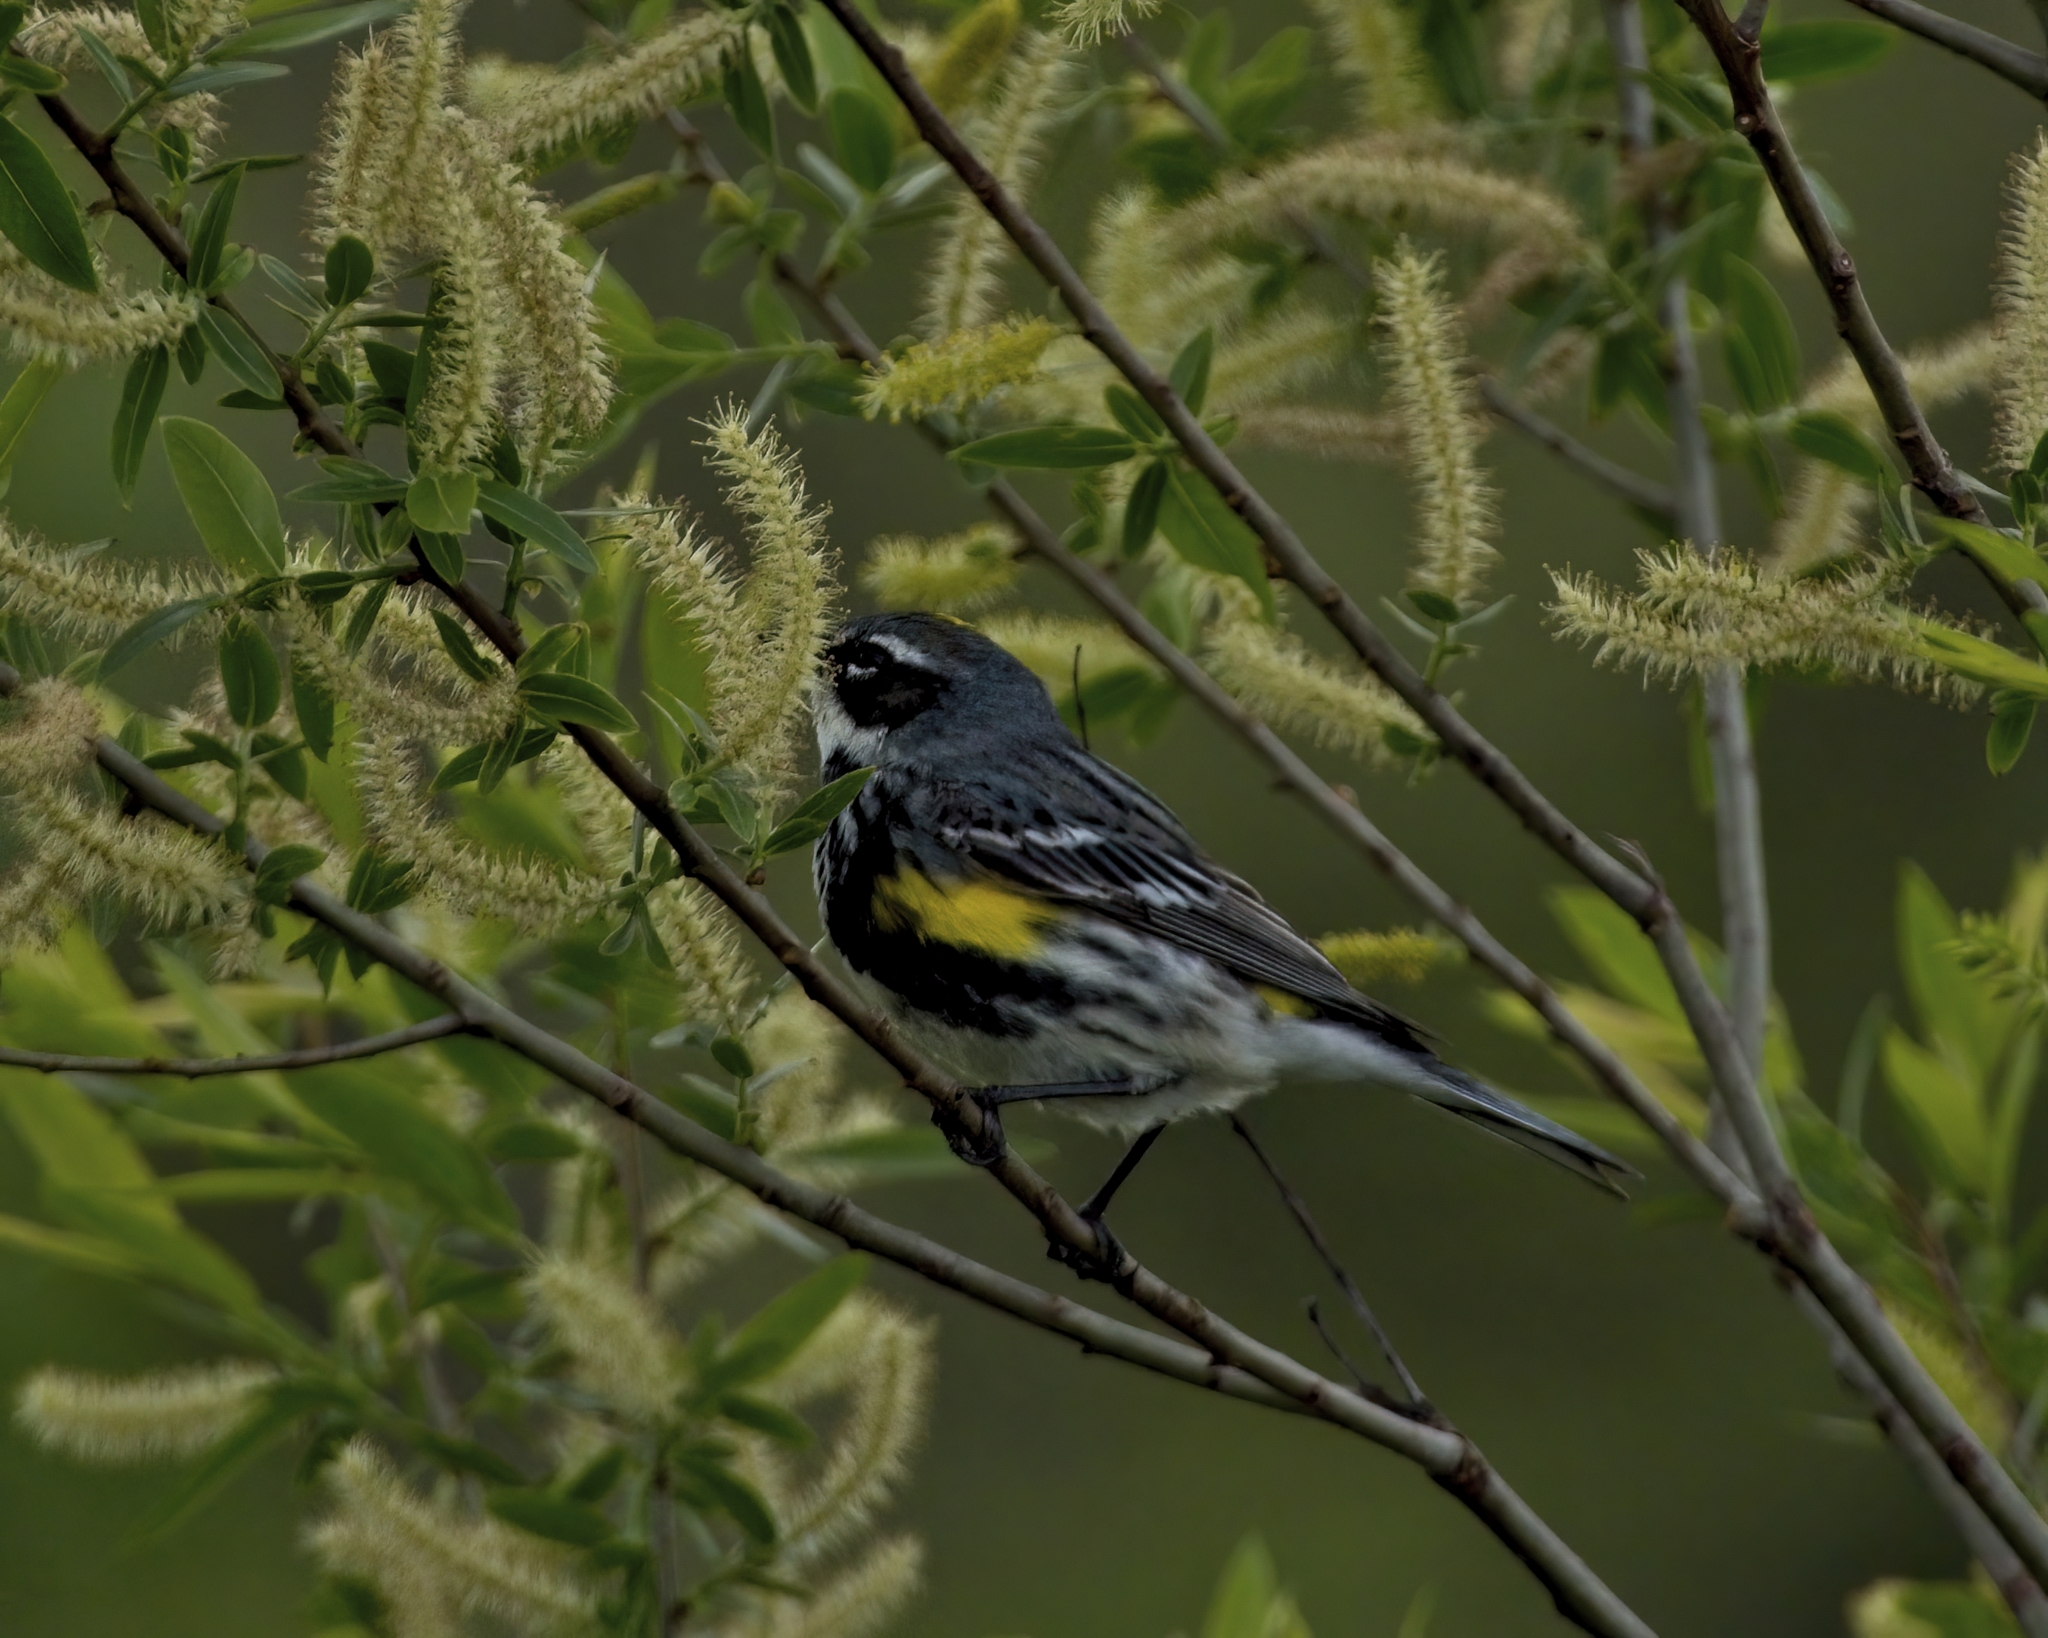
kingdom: Animalia
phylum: Chordata
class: Aves
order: Passeriformes
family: Parulidae
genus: Setophaga
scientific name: Setophaga coronata
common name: Myrtle warbler
